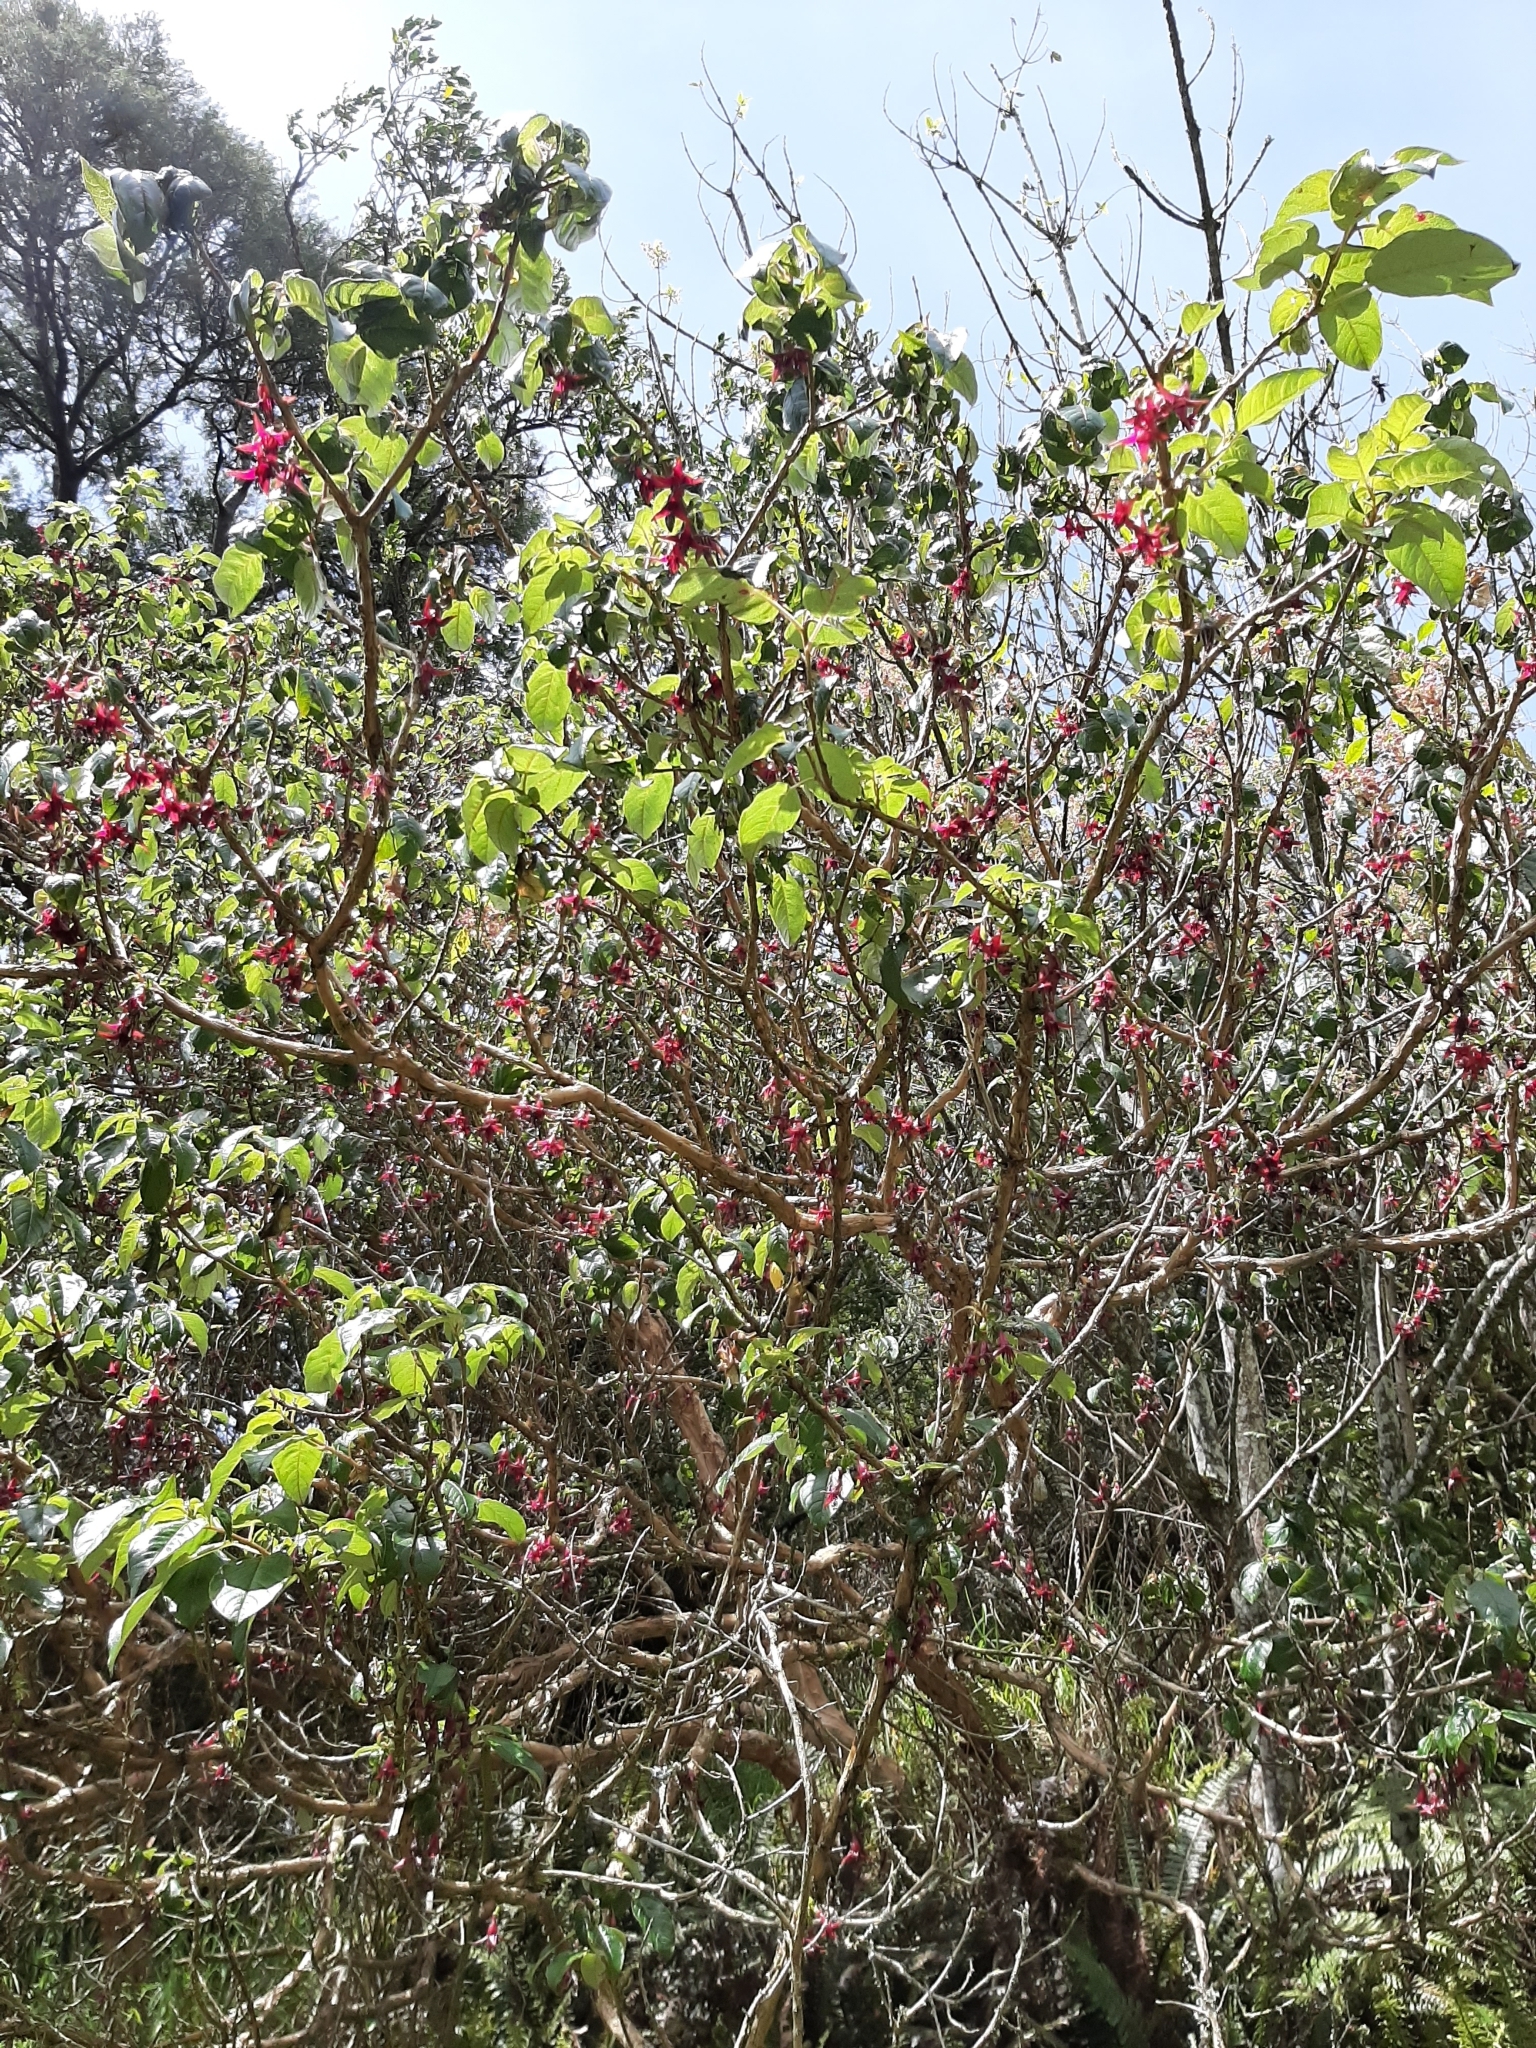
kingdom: Plantae
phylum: Tracheophyta
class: Magnoliopsida
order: Myrtales
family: Onagraceae
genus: Fuchsia
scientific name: Fuchsia excorticata
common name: Tree fuchsia
